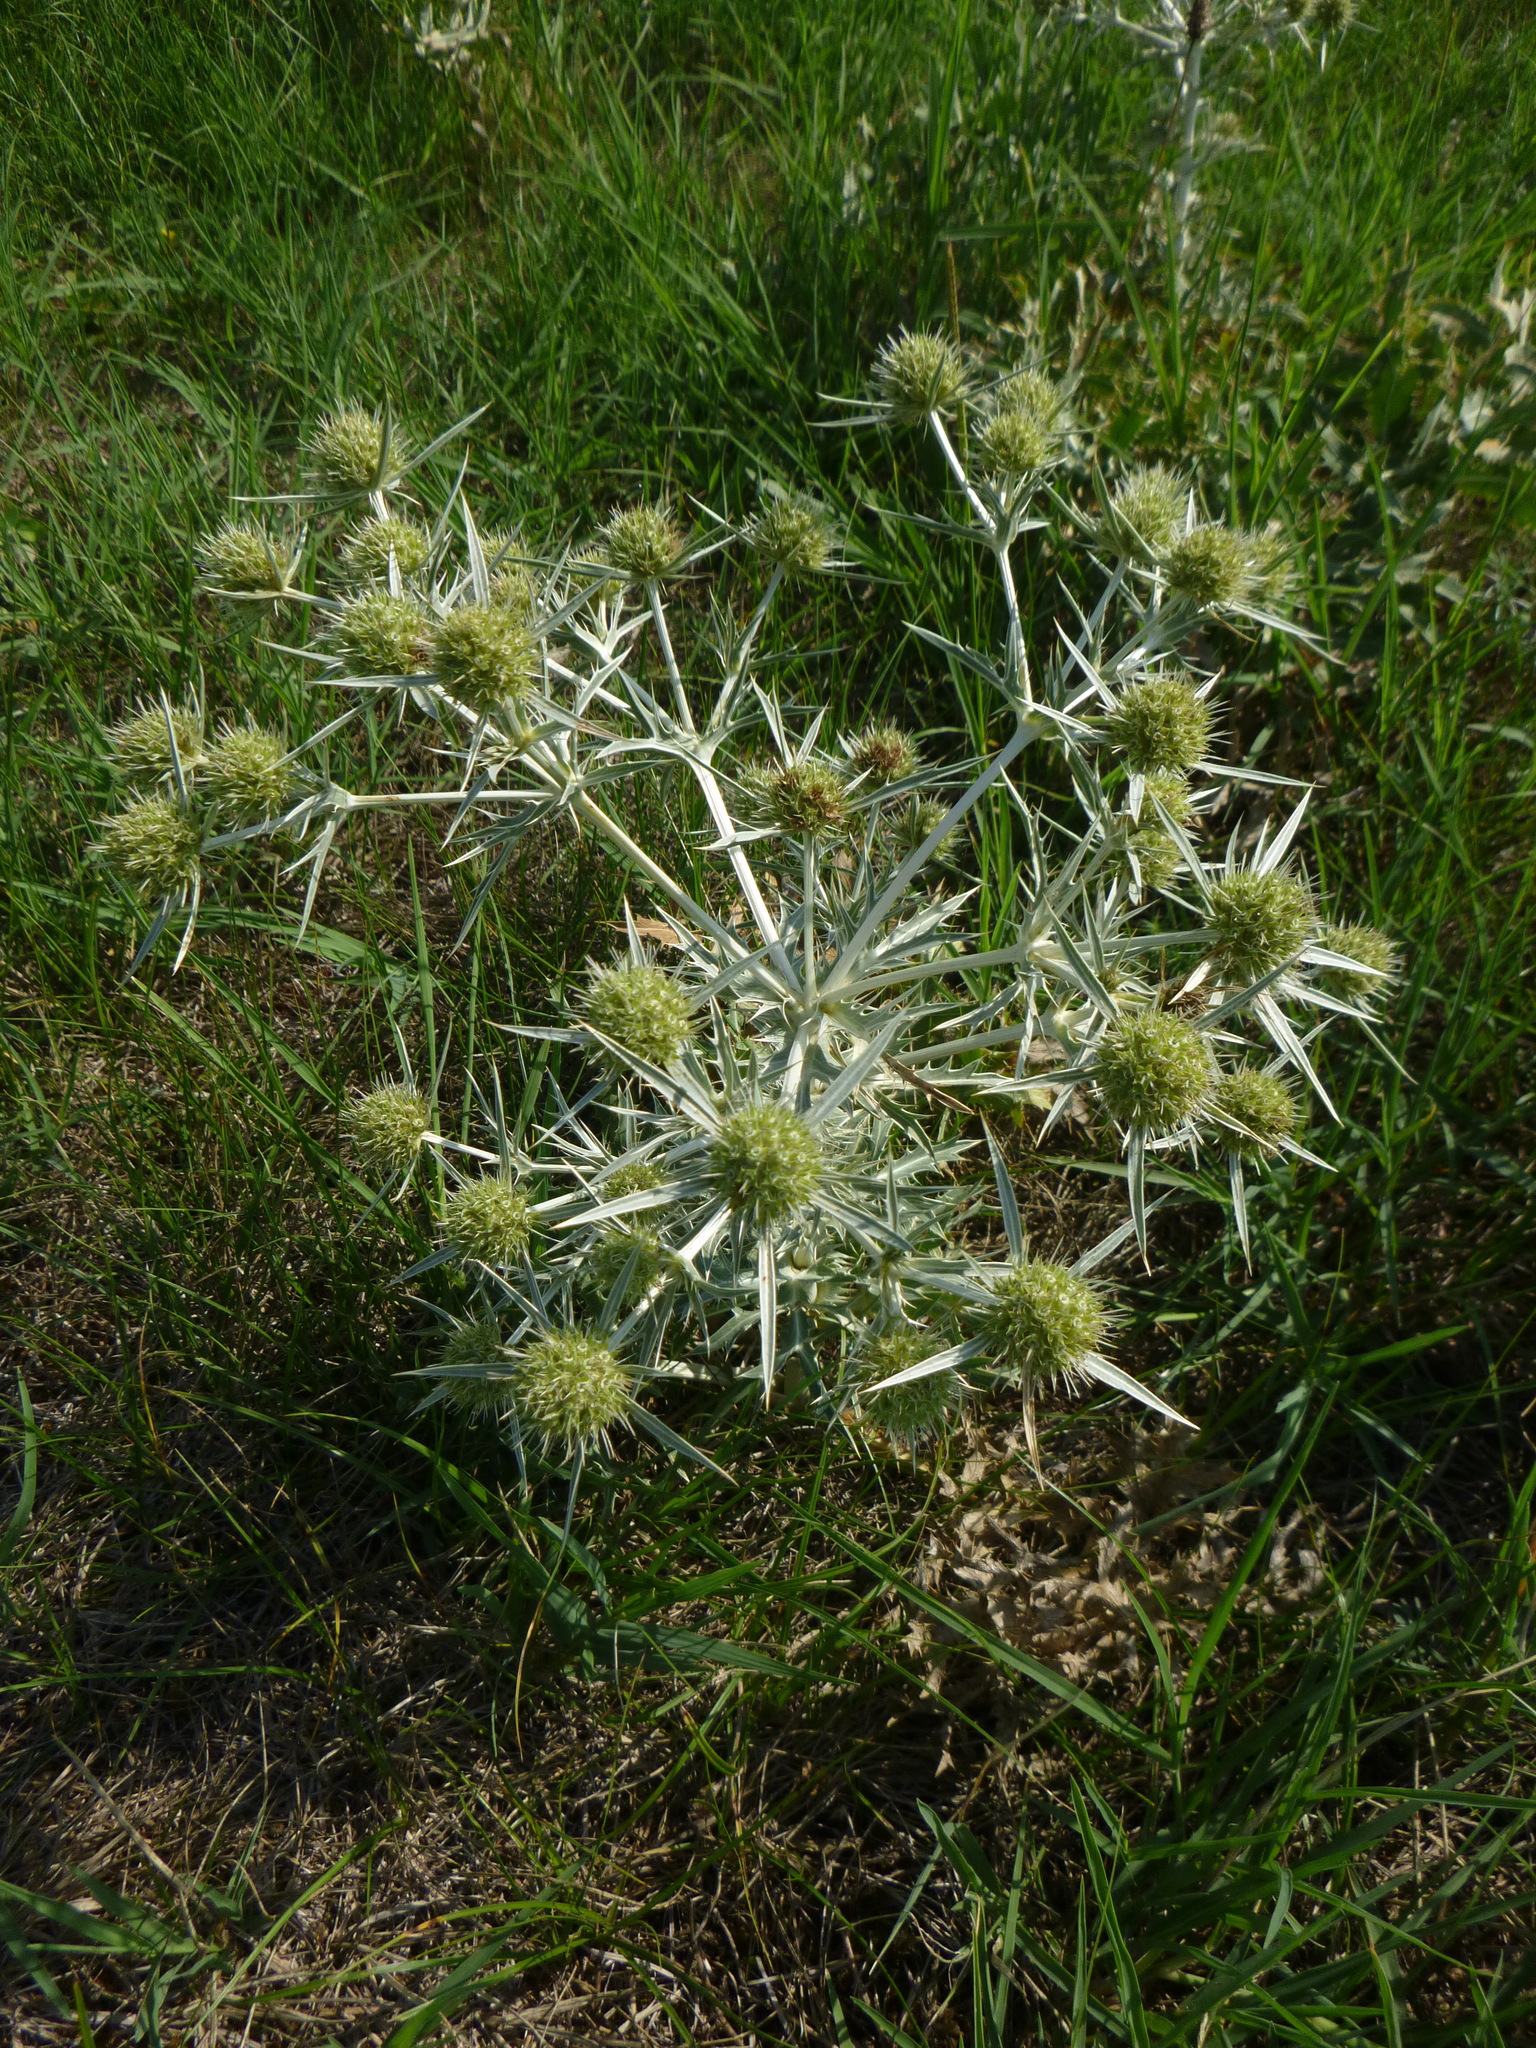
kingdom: Plantae
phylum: Tracheophyta
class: Magnoliopsida
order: Apiales
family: Apiaceae
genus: Eryngium
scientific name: Eryngium campestre
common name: Field eryngo
